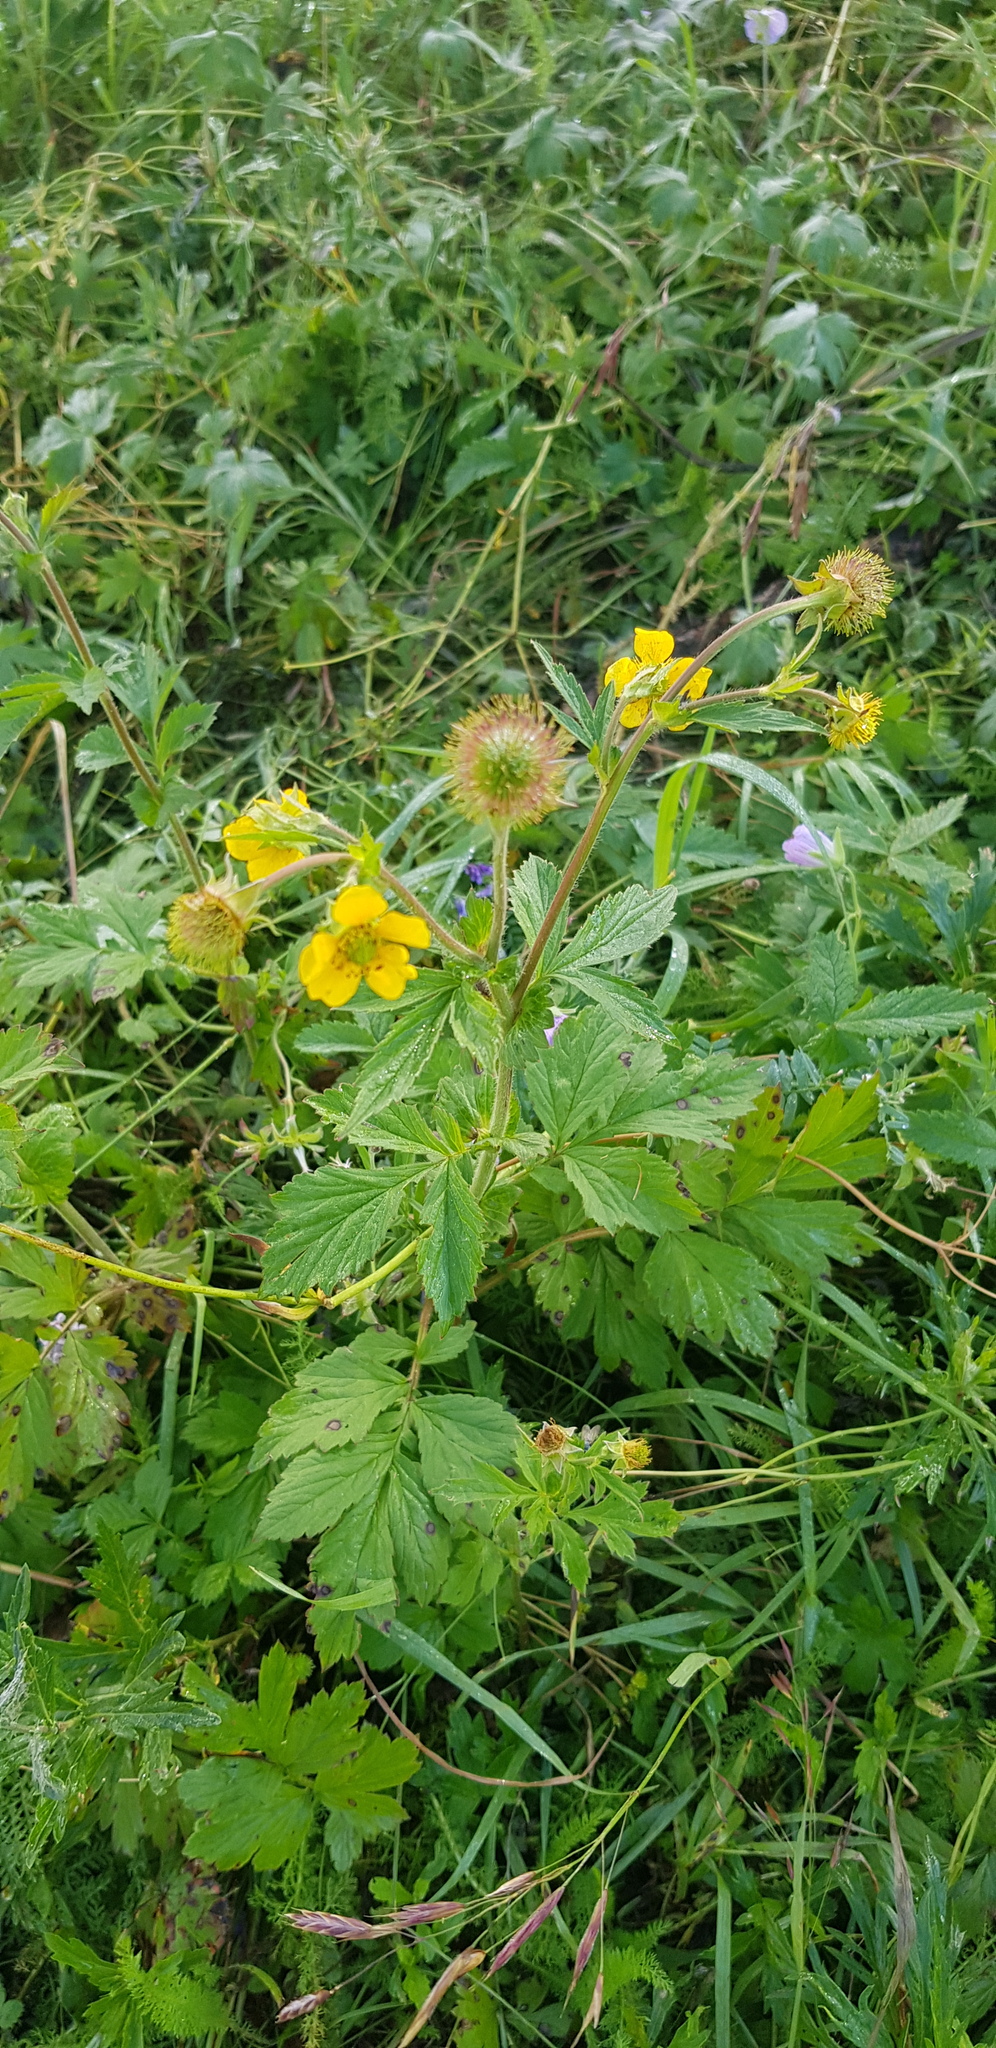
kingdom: Plantae
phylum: Tracheophyta
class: Magnoliopsida
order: Rosales
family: Rosaceae
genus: Geum
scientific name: Geum aleppicum
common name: Yellow avens
